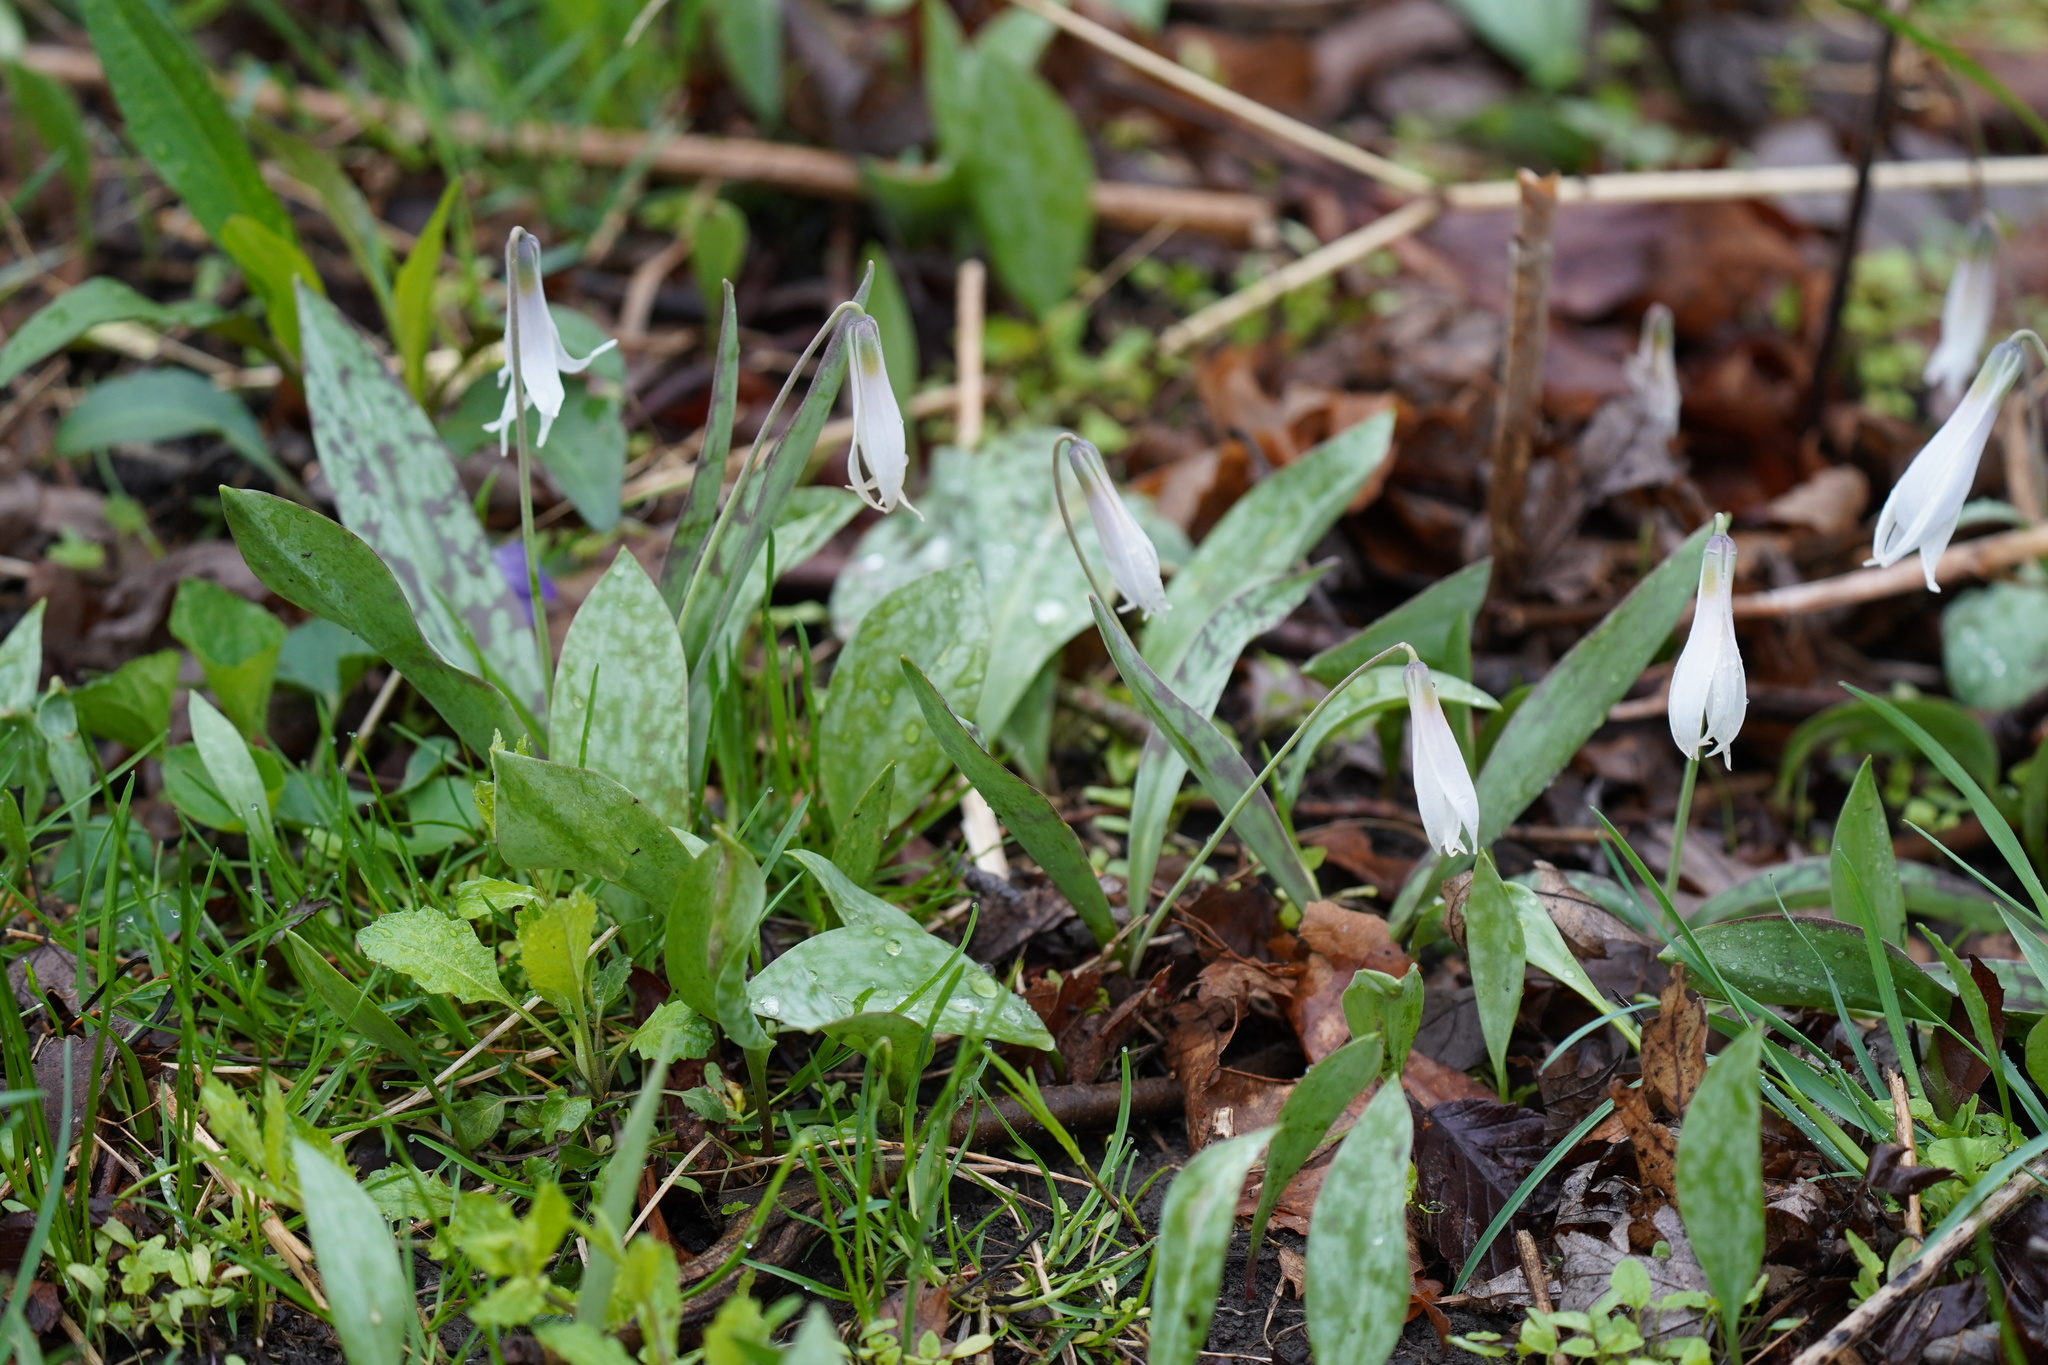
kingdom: Plantae
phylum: Tracheophyta
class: Liliopsida
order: Liliales
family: Liliaceae
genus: Erythronium
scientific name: Erythronium albidum
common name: White trout-lily
